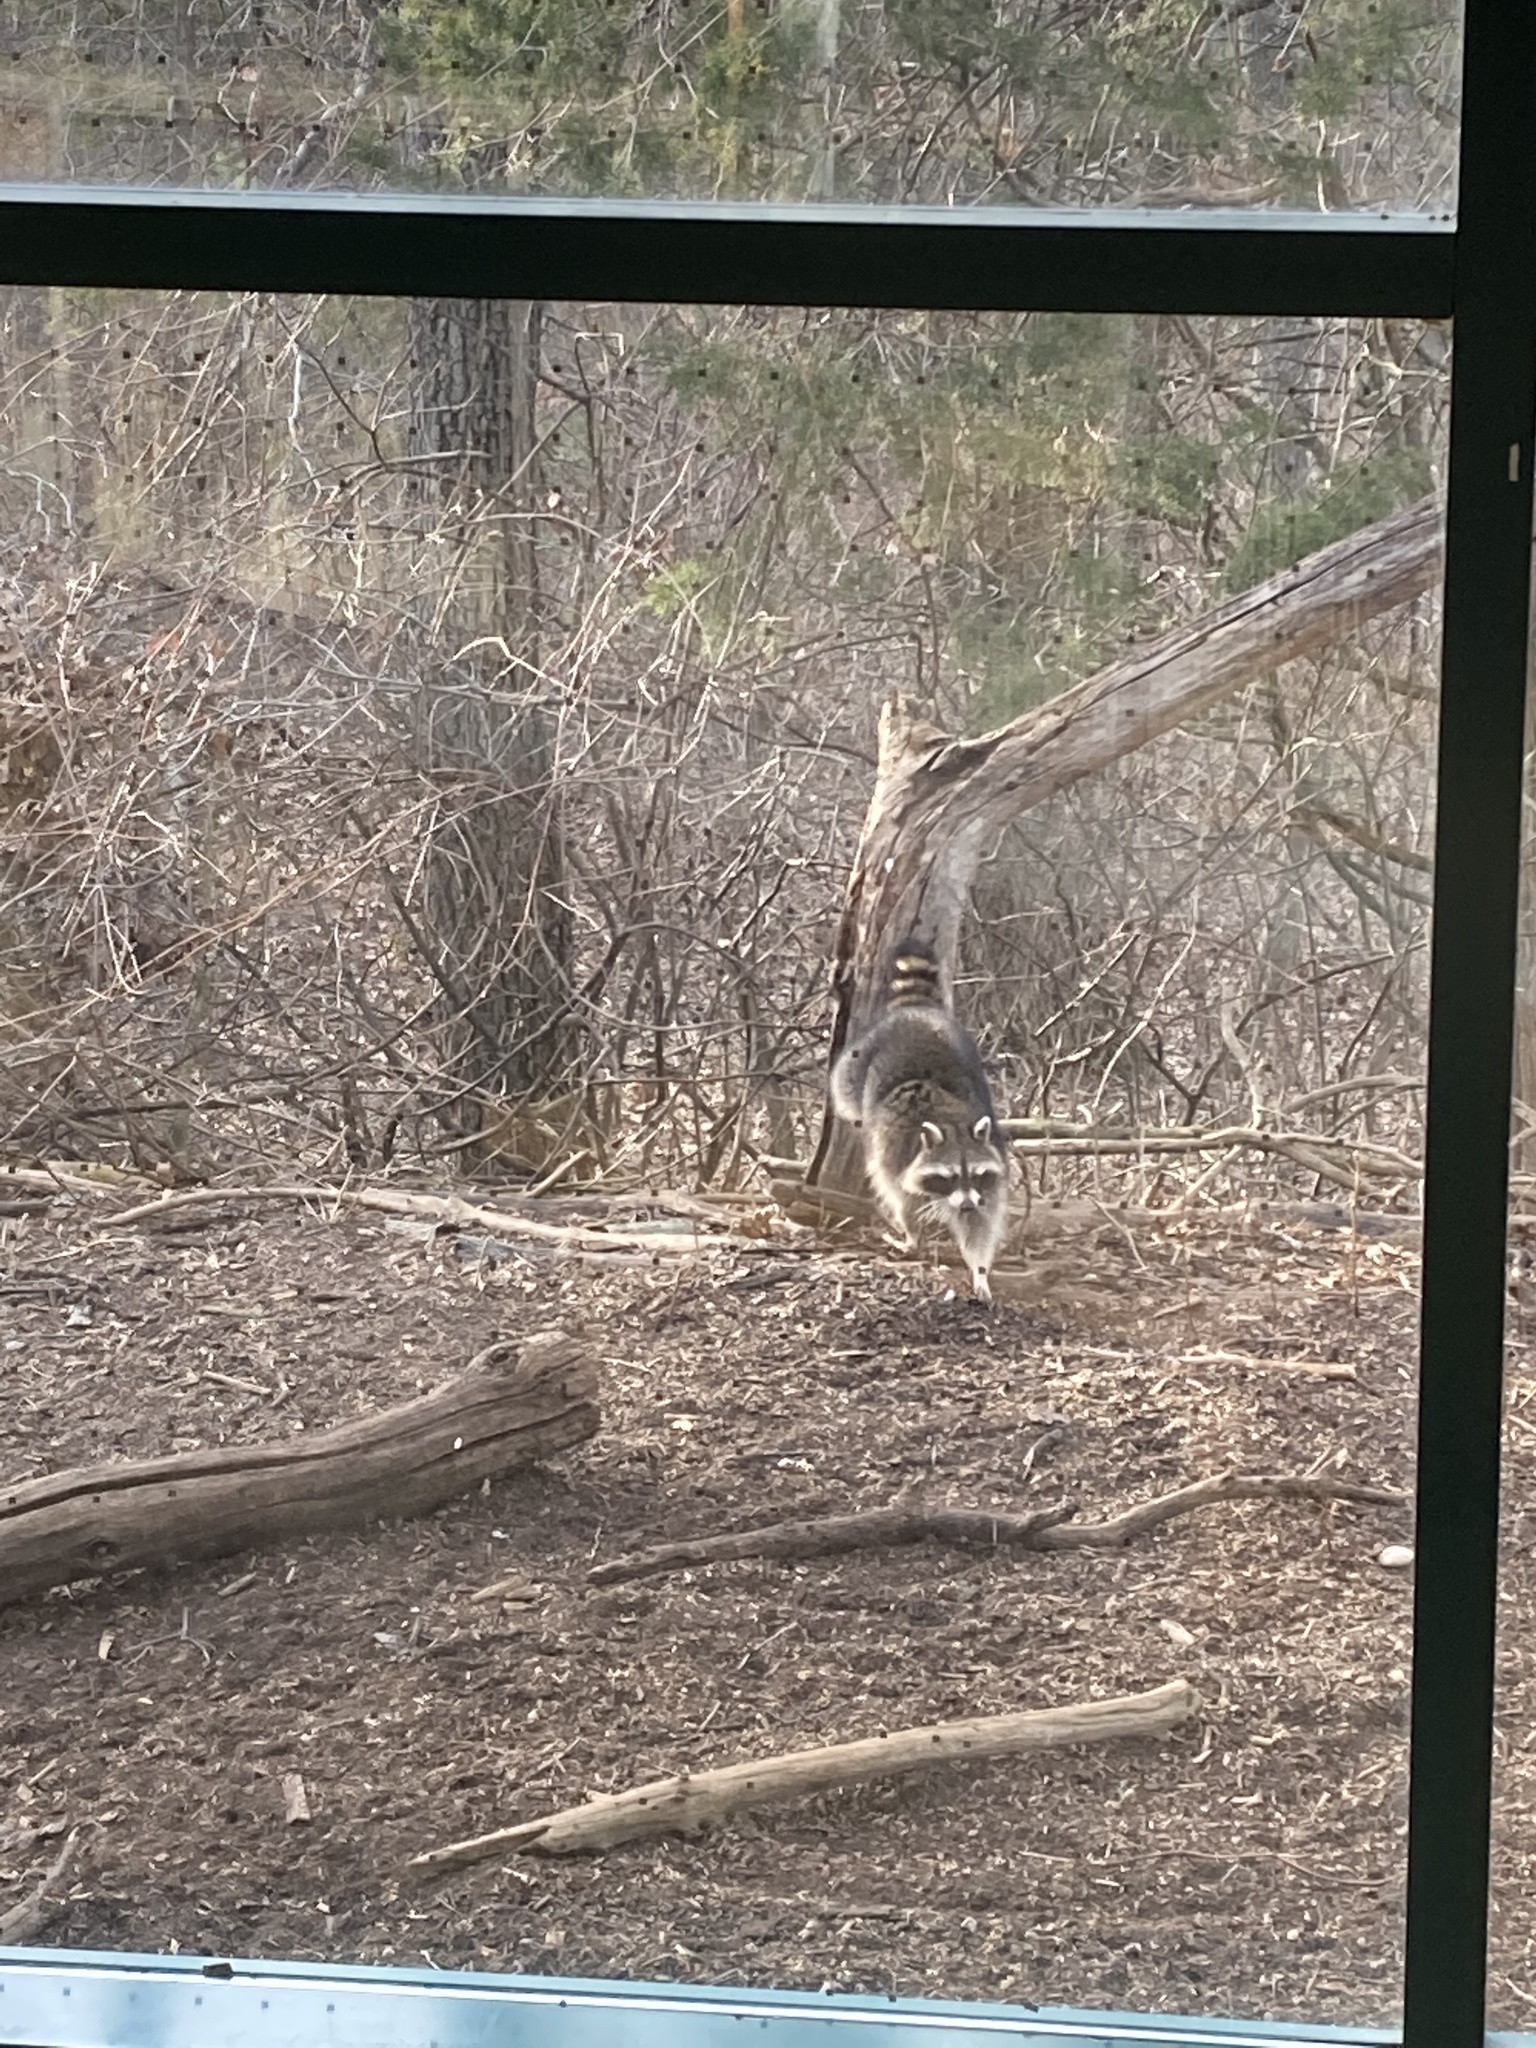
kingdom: Animalia
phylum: Chordata
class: Mammalia
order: Carnivora
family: Procyonidae
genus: Procyon
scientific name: Procyon lotor
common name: Raccoon
